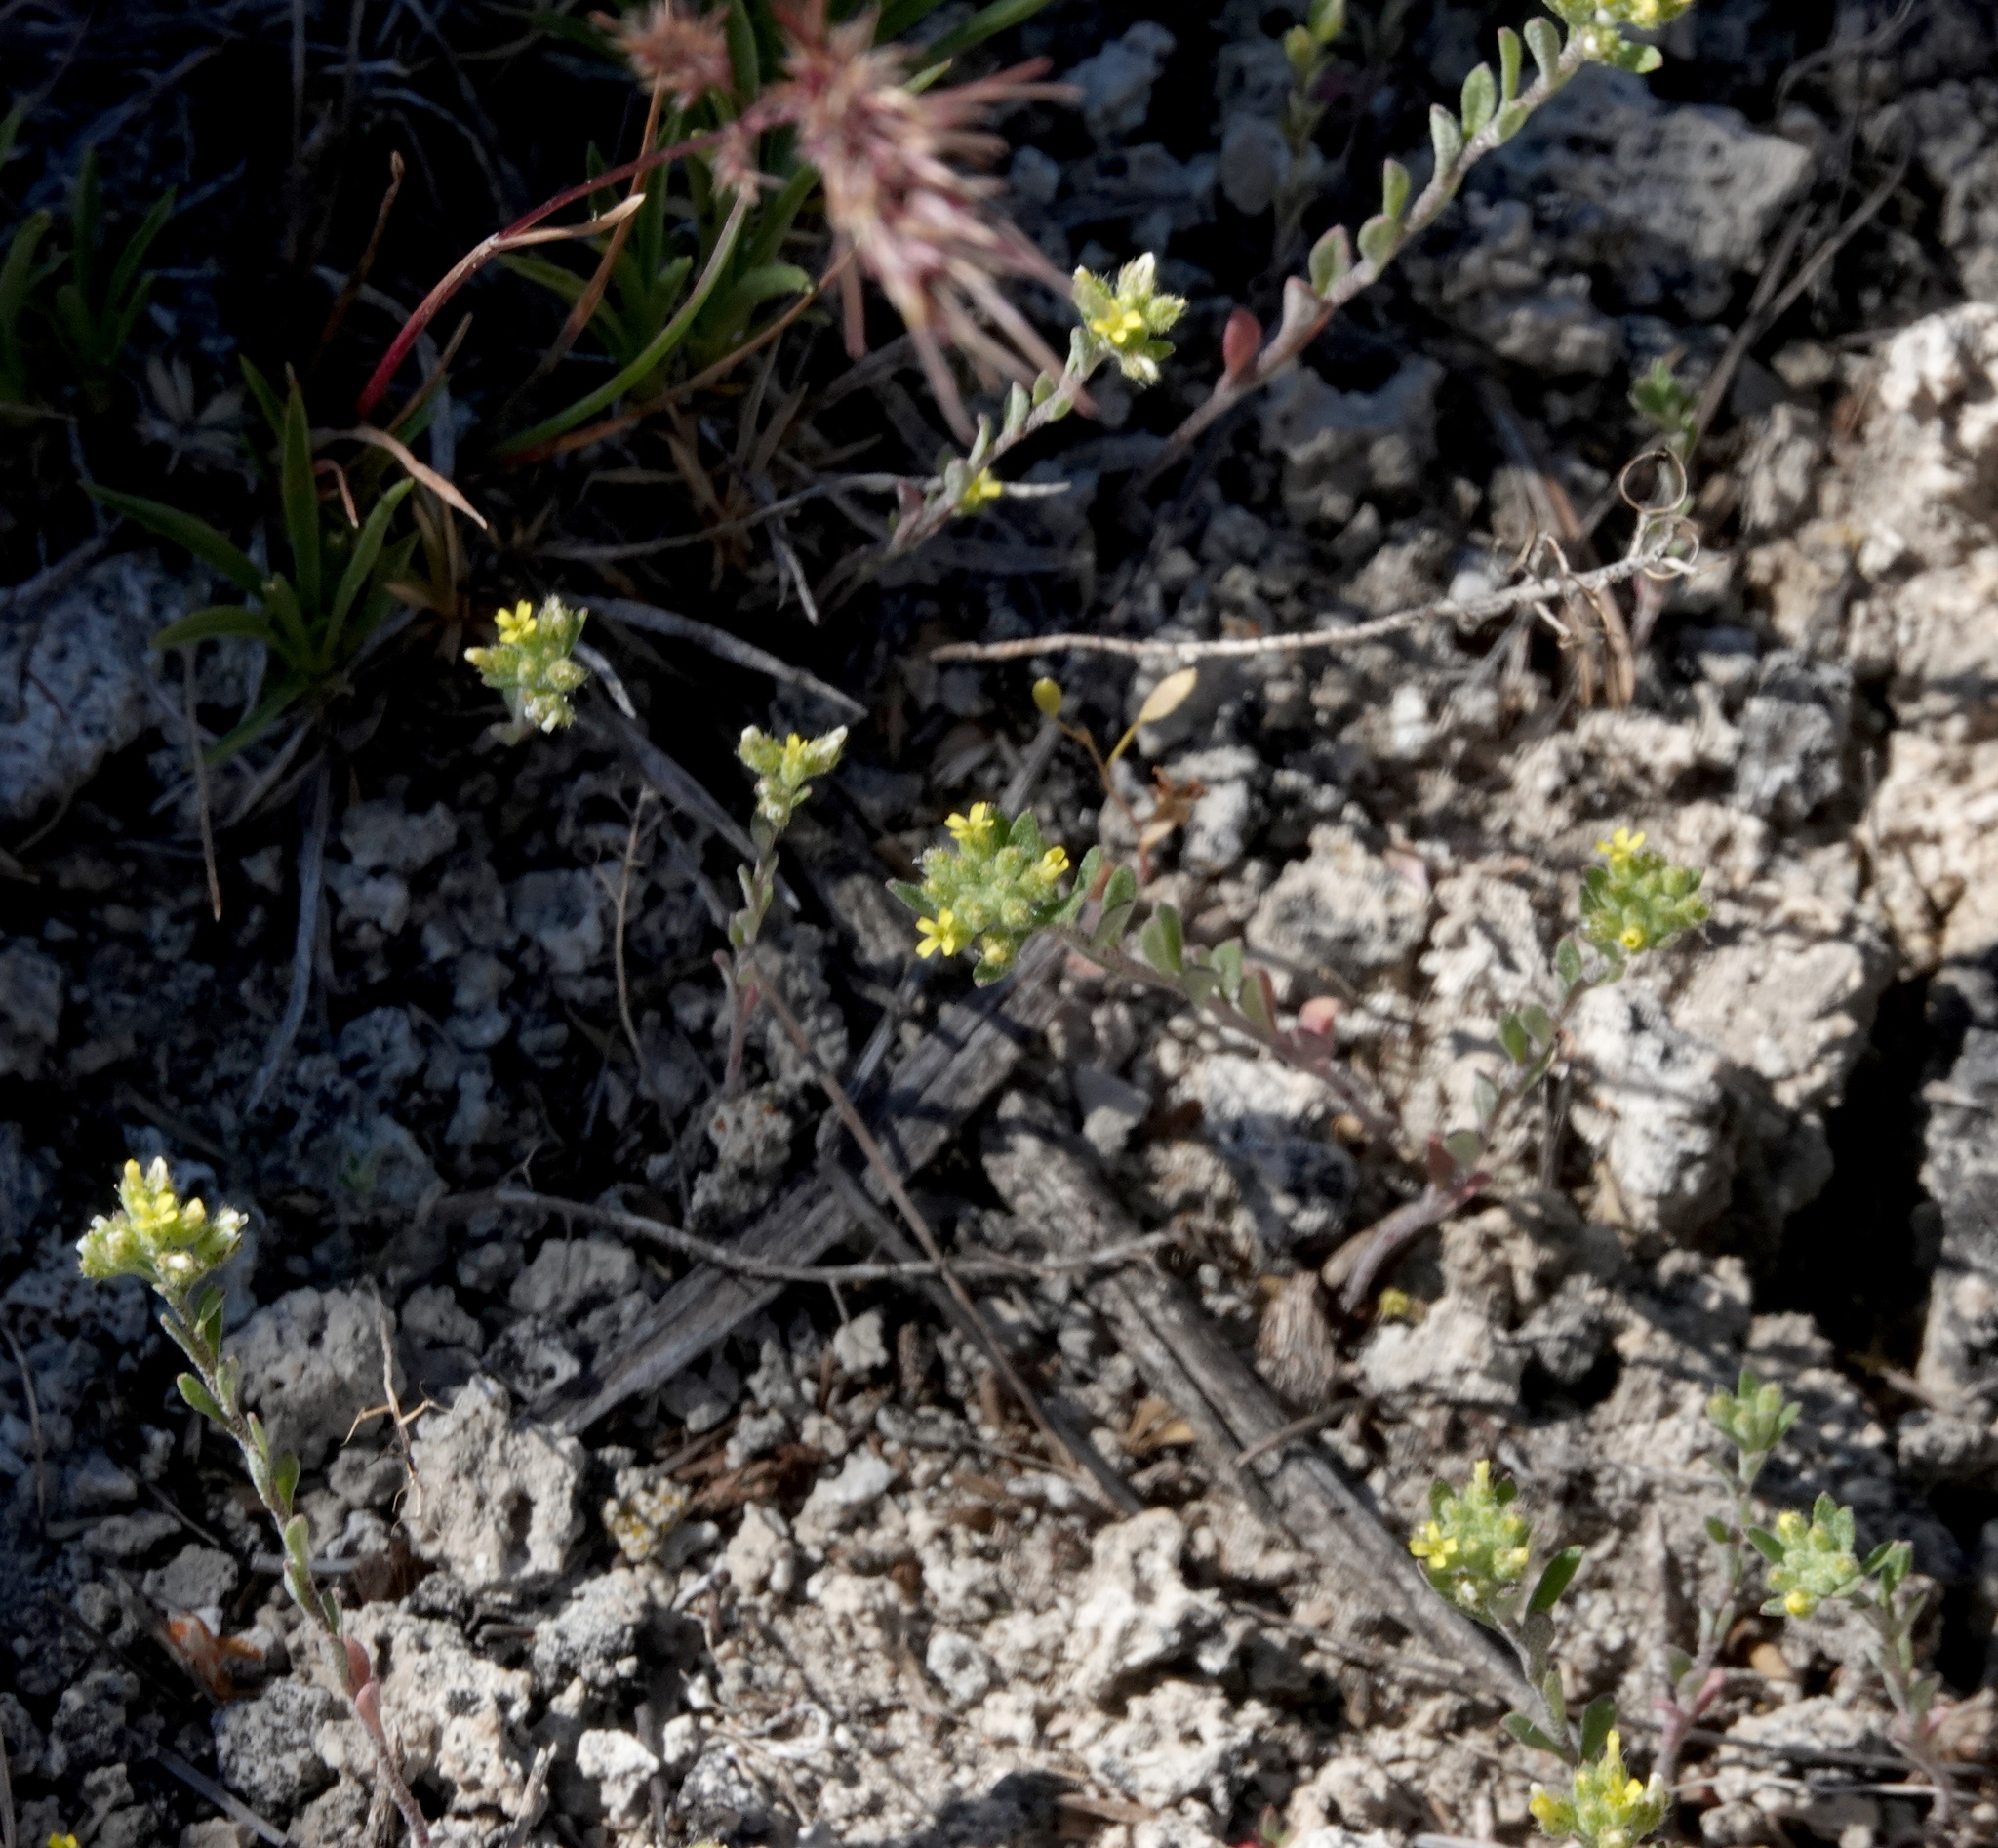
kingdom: Plantae
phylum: Tracheophyta
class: Magnoliopsida
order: Brassicales
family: Brassicaceae
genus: Alyssum
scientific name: Alyssum turkestanicum
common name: Desert alyssum
